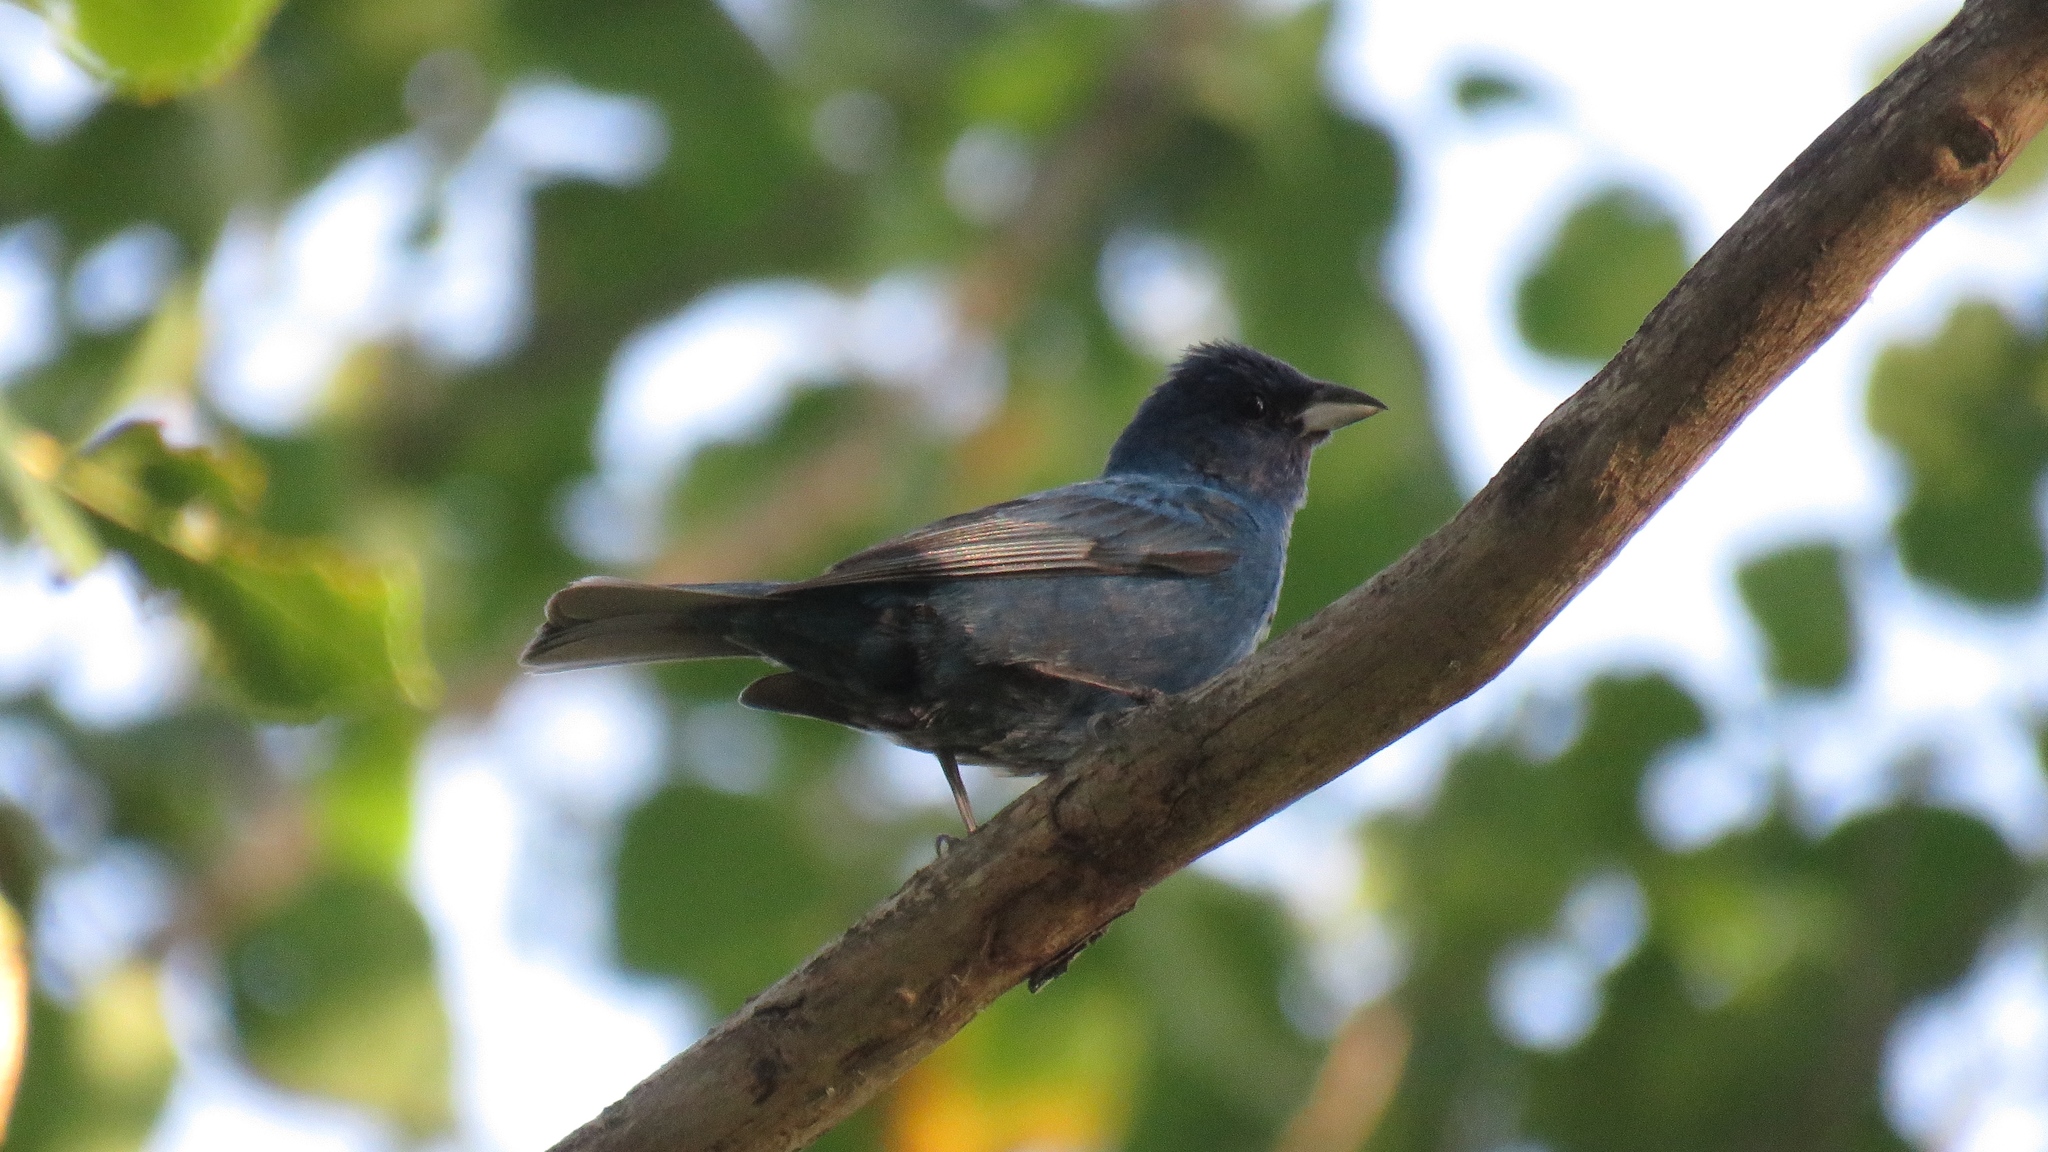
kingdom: Animalia
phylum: Chordata
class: Aves
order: Passeriformes
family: Cardinalidae
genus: Passerina
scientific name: Passerina cyanea
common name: Indigo bunting
